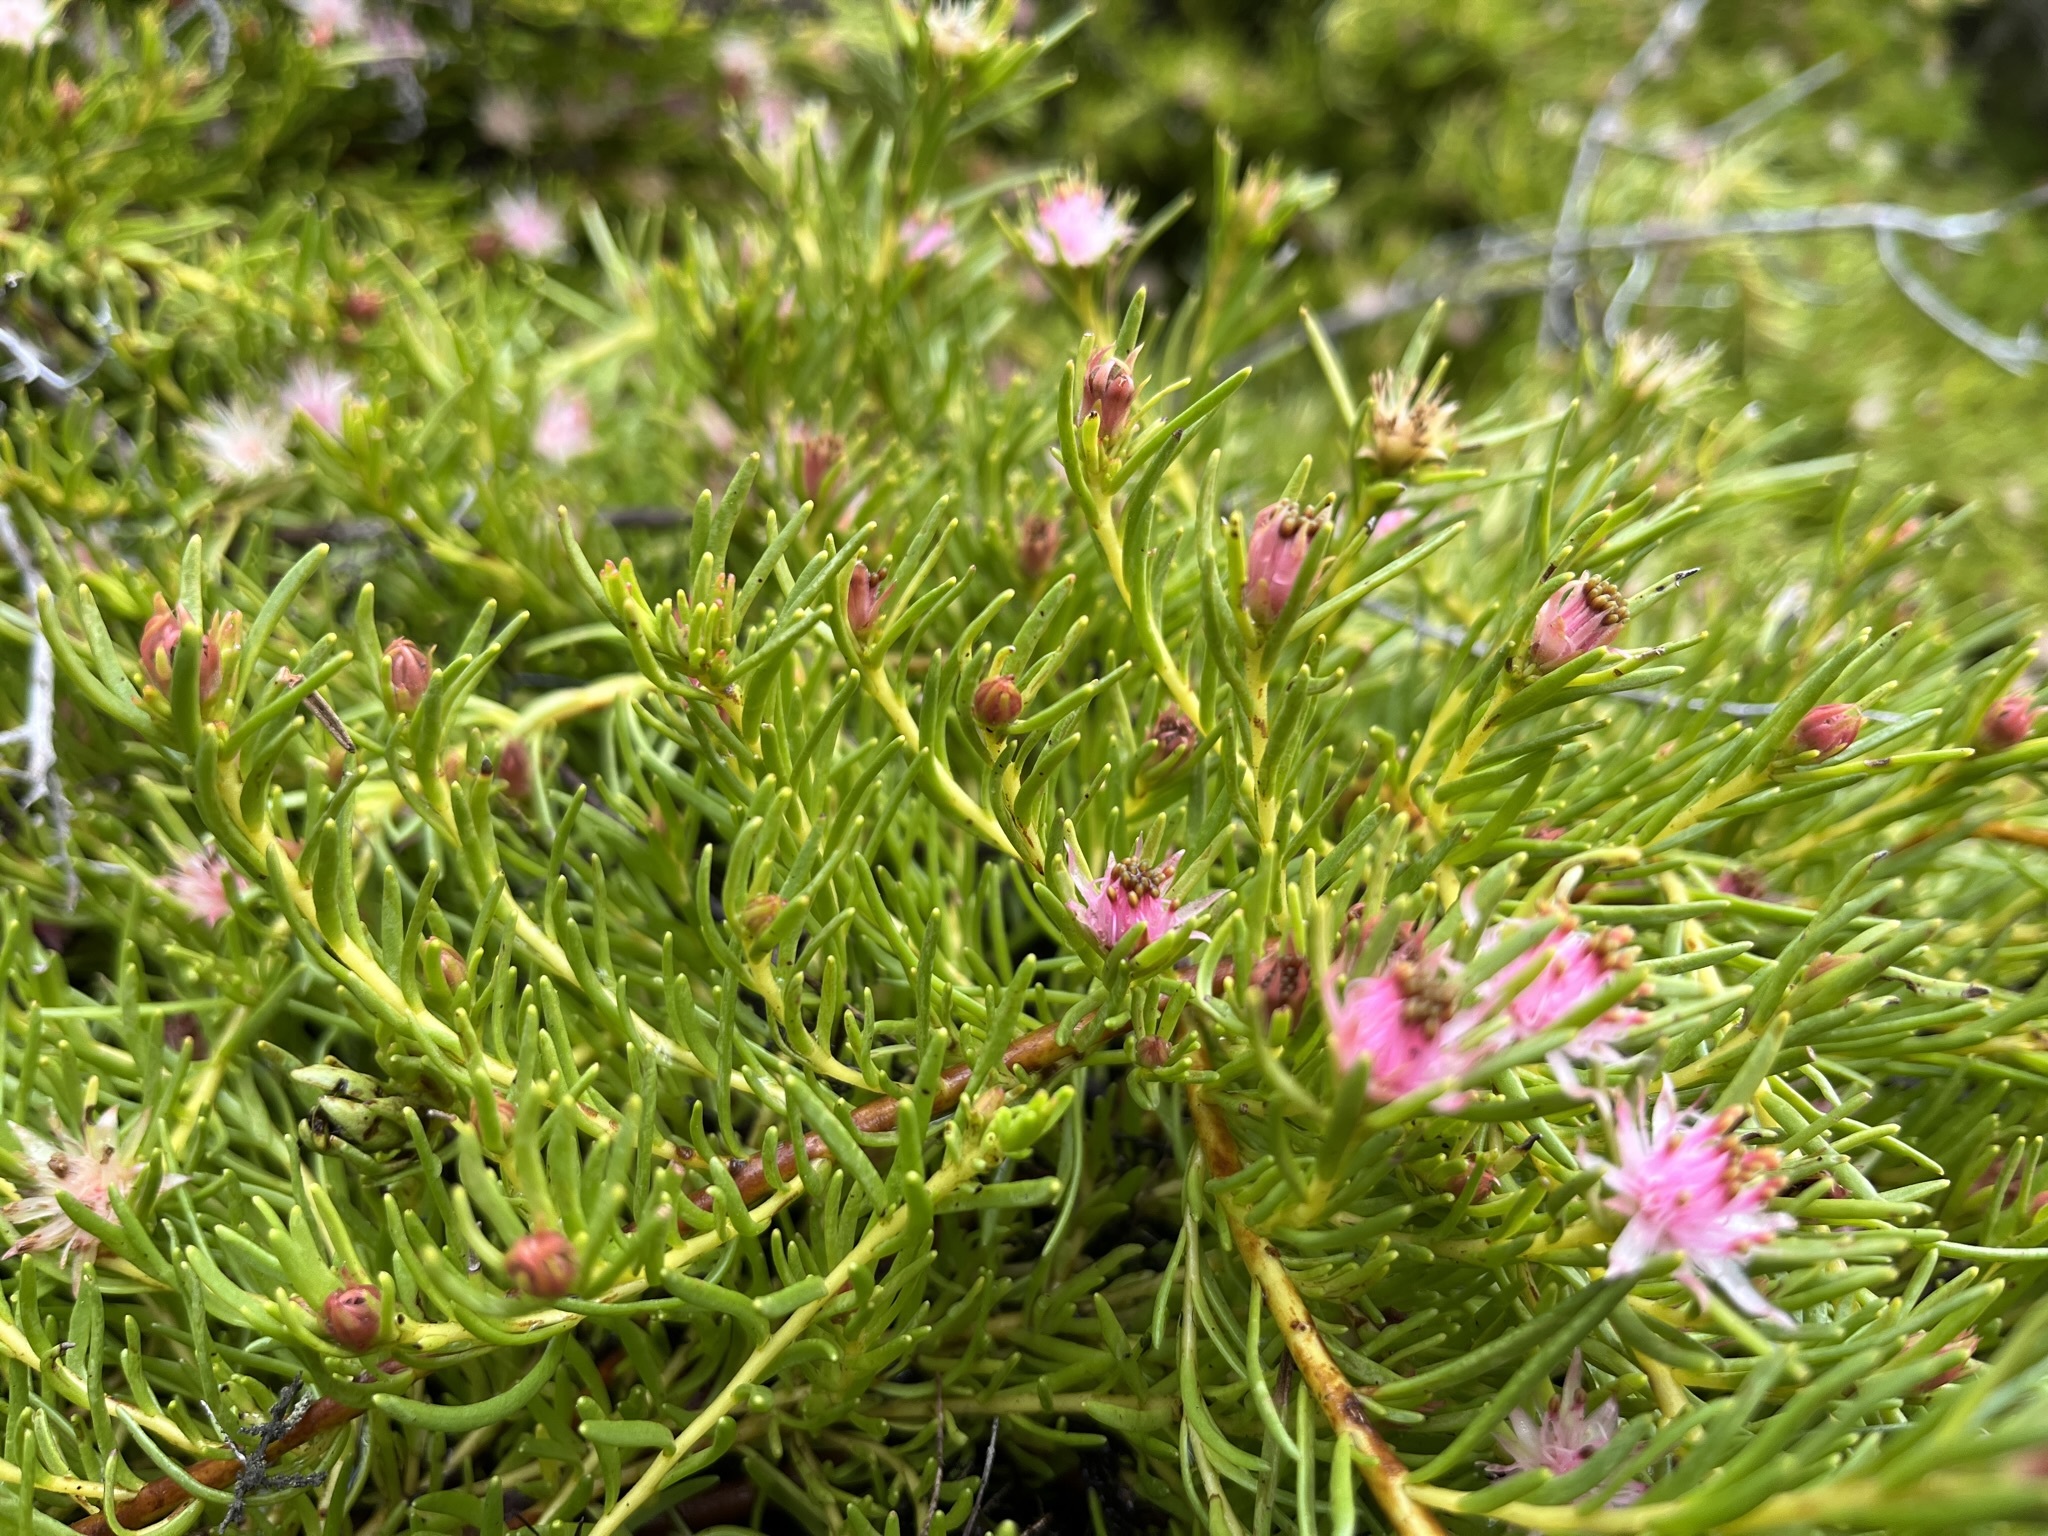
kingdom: Plantae
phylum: Tracheophyta
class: Magnoliopsida
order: Proteales
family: Proteaceae
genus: Diastella
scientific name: Diastella buekii
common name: Franschhoek silkypuff
